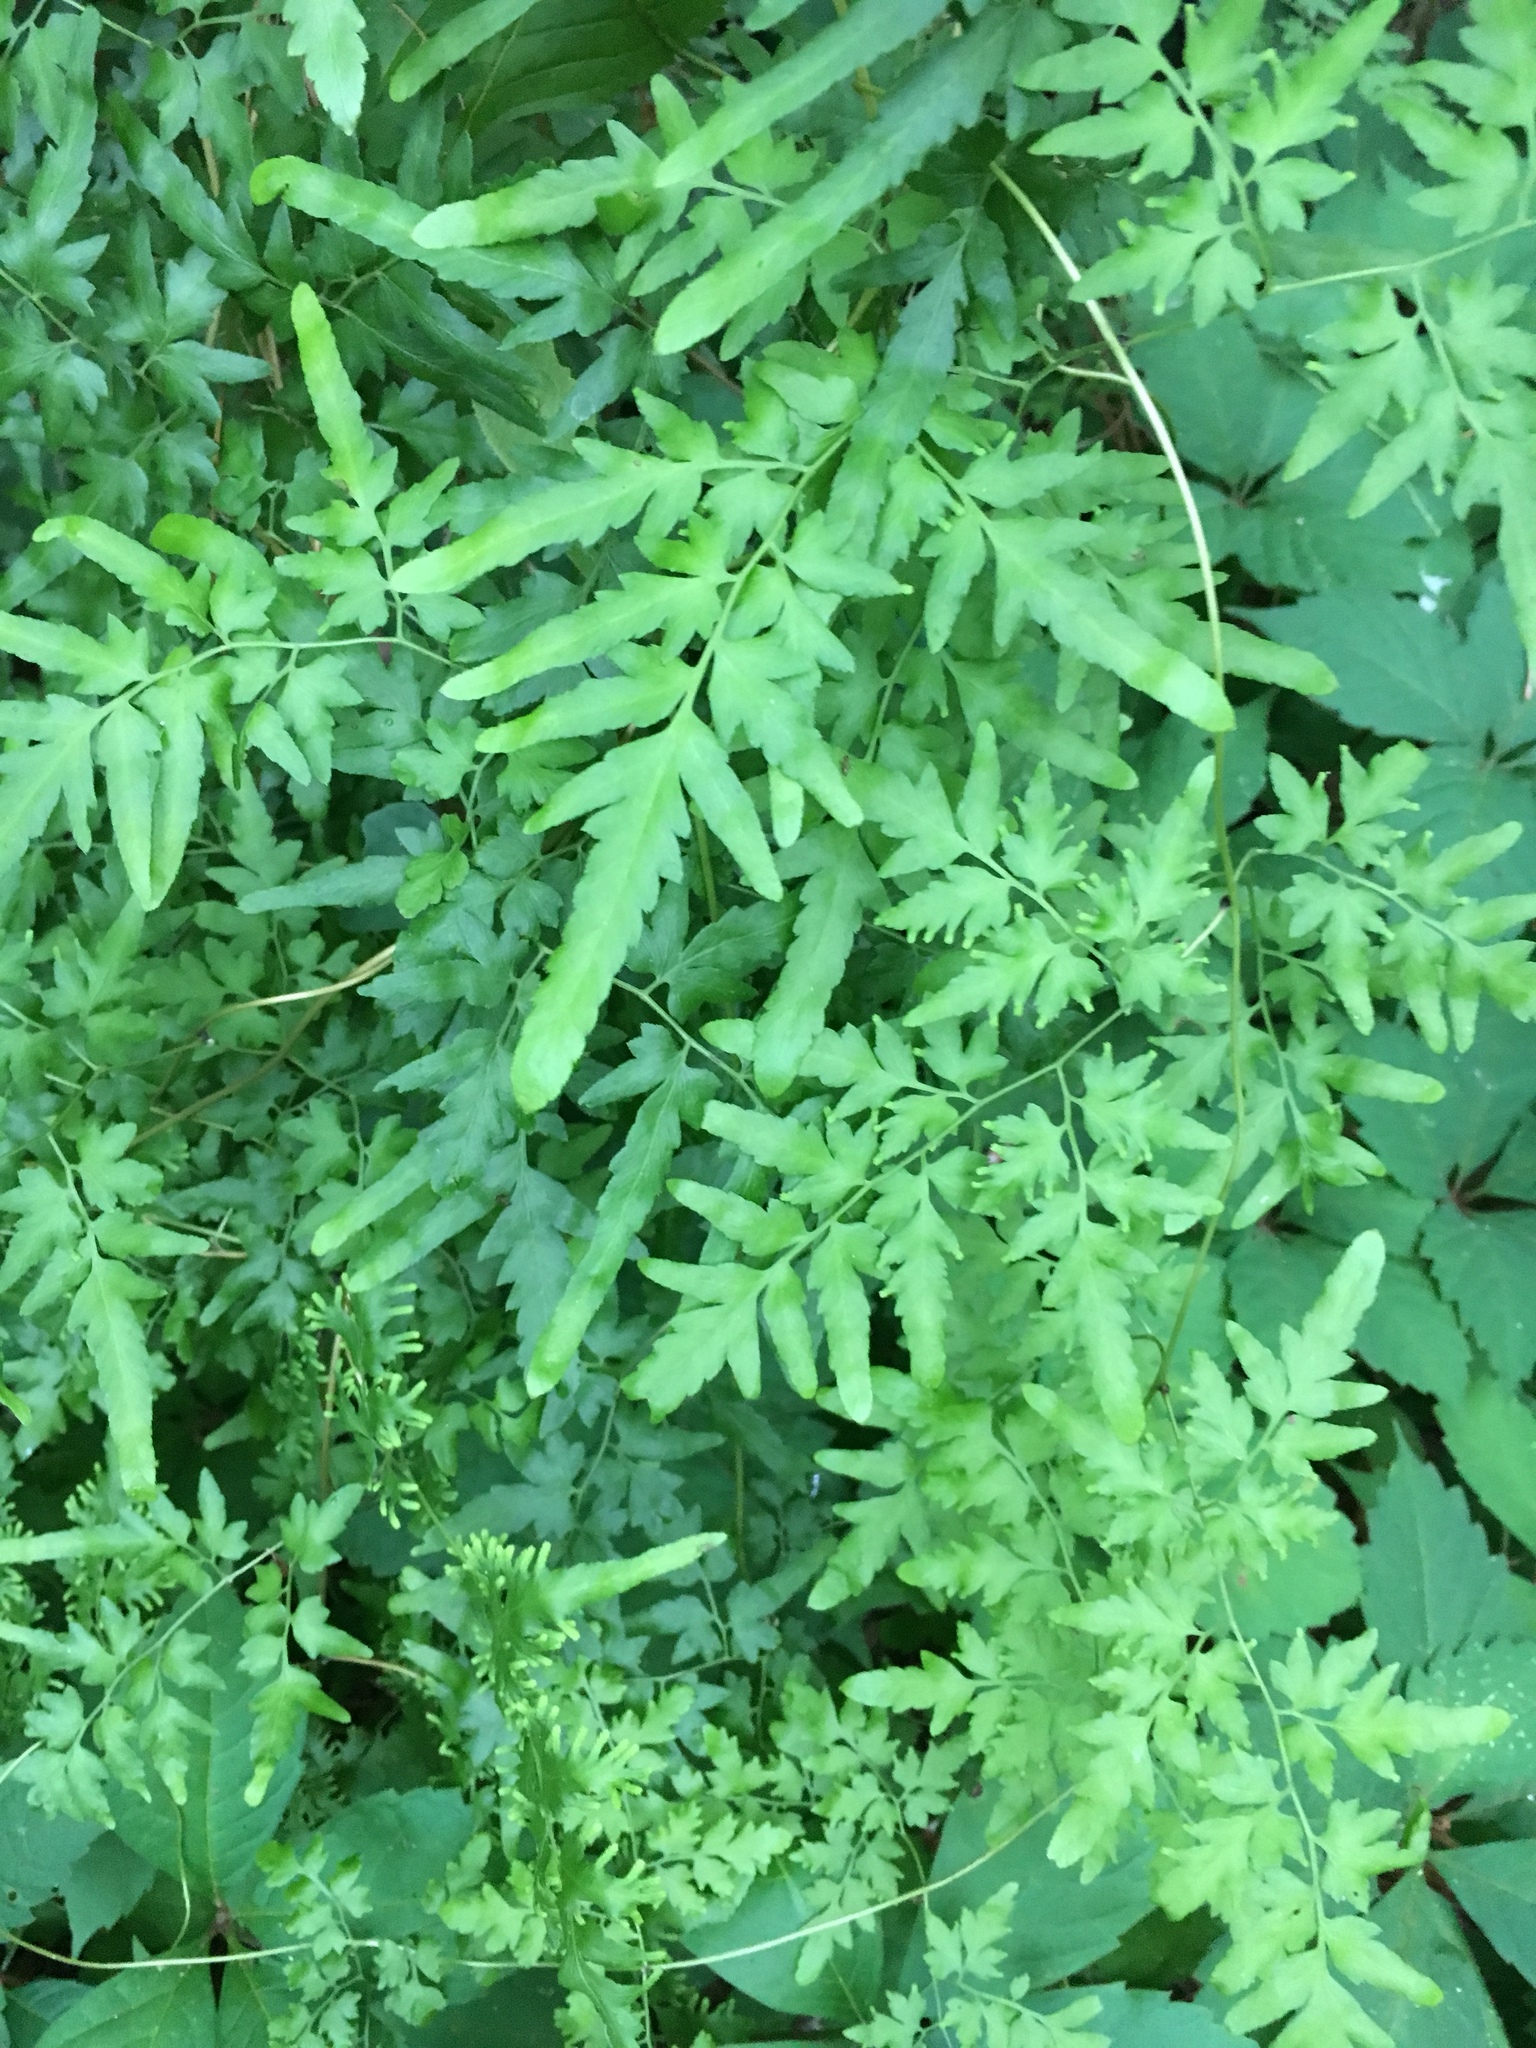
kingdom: Plantae
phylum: Tracheophyta
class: Polypodiopsida
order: Schizaeales
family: Lygodiaceae
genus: Lygodium
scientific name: Lygodium japonicum
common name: Japanese climbing fern
